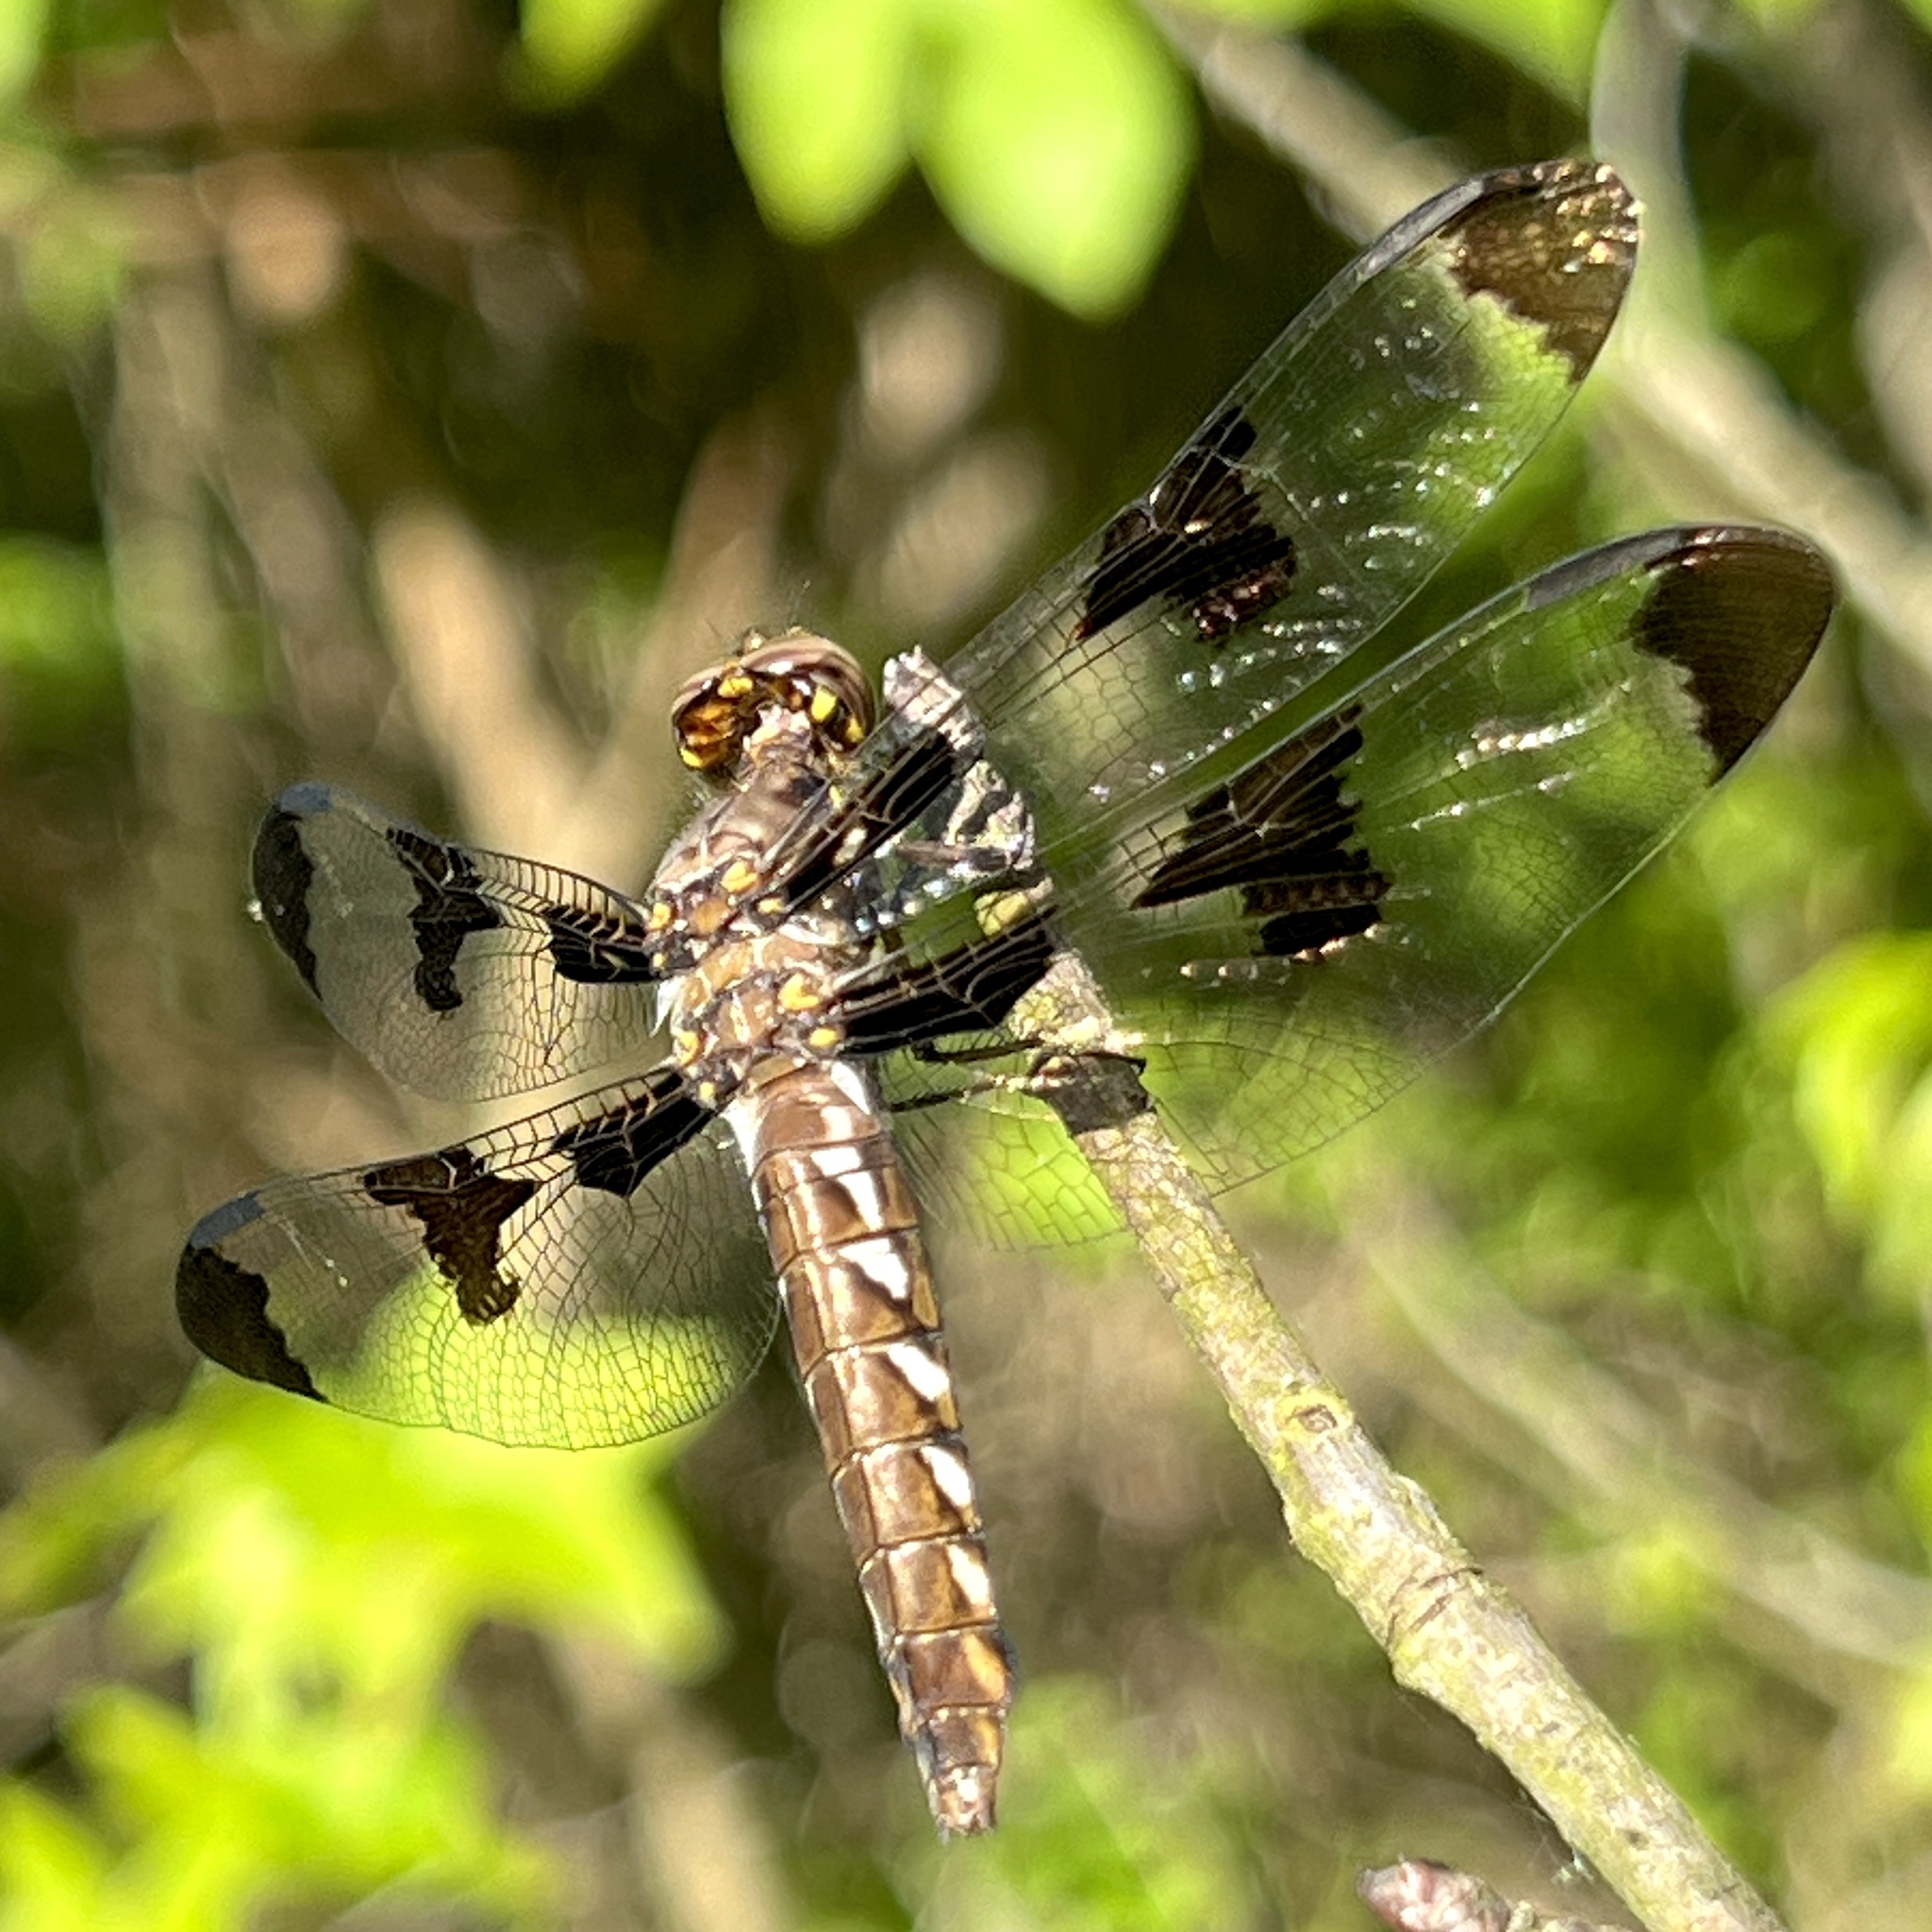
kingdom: Animalia
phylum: Arthropoda
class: Insecta
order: Odonata
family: Libellulidae
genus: Plathemis
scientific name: Plathemis lydia
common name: Common whitetail
